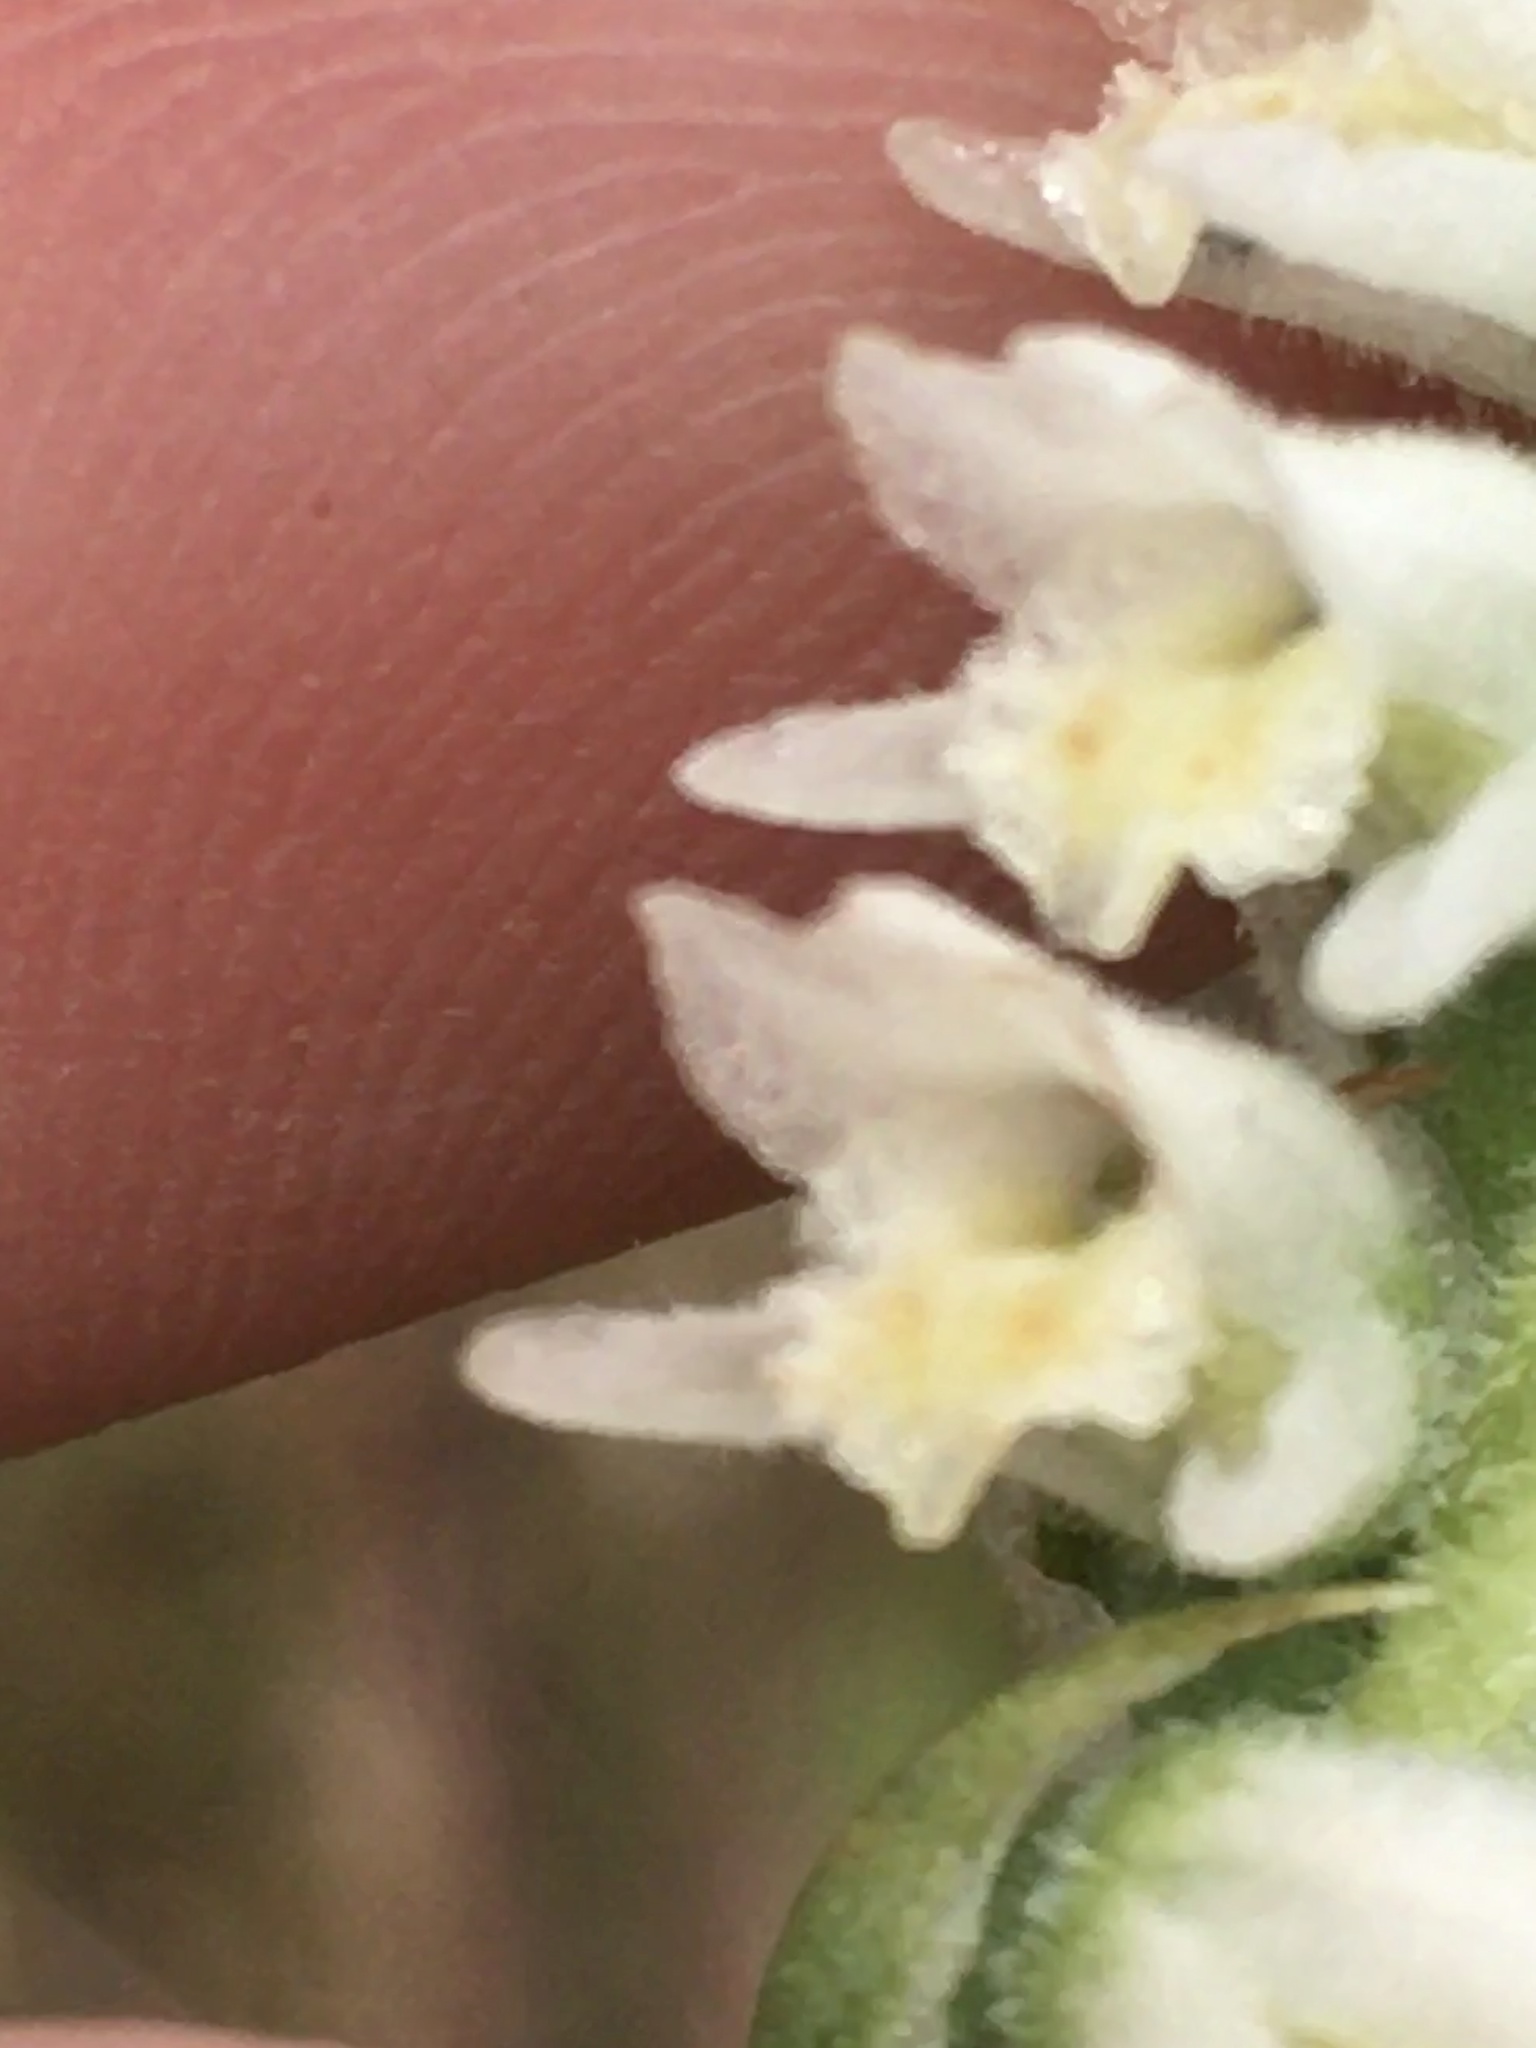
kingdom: Plantae
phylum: Tracheophyta
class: Liliopsida
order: Asparagales
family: Orchidaceae
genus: Spiranthes
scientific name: Spiranthes vernalis
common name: Spring ladies'-tresses
